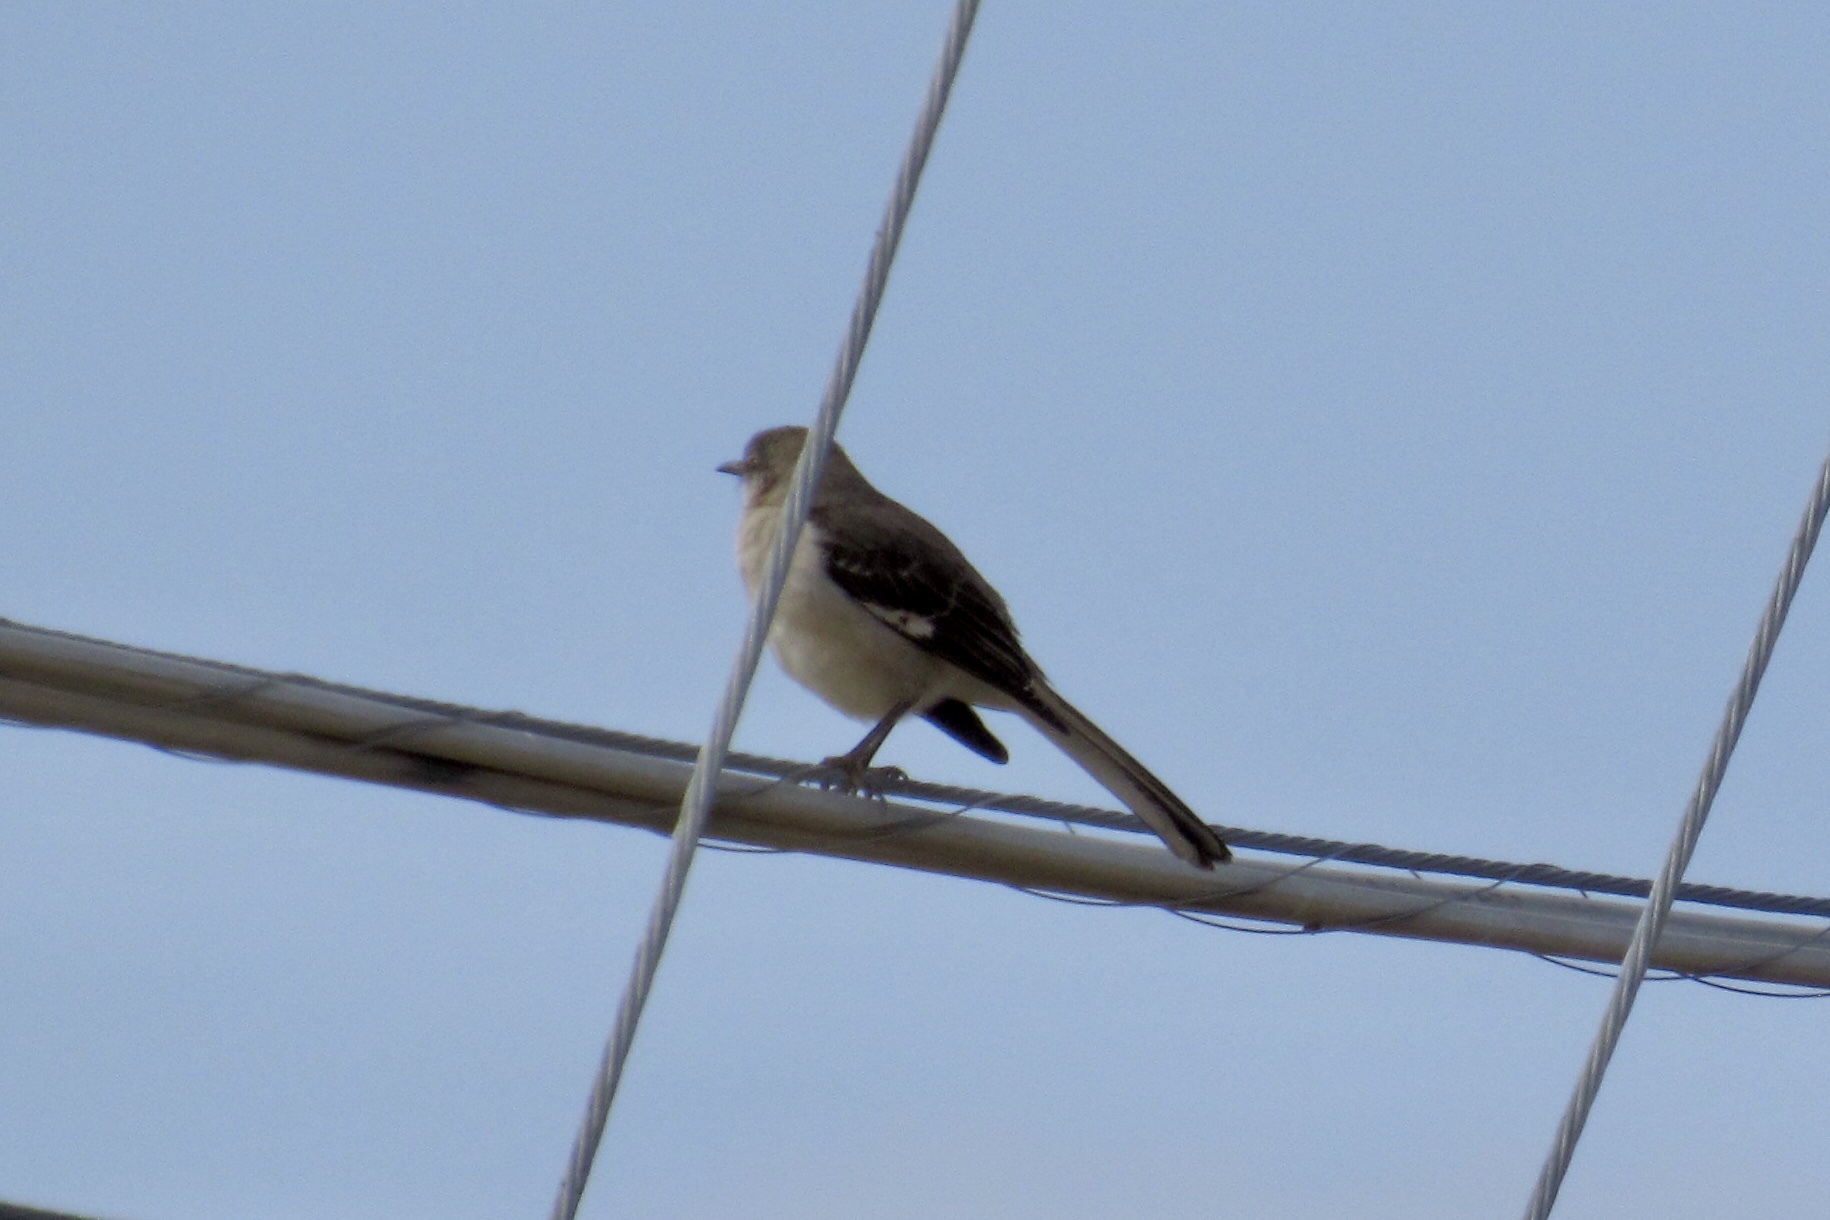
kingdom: Animalia
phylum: Chordata
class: Aves
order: Passeriformes
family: Mimidae
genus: Mimus
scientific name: Mimus polyglottos
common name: Northern mockingbird
